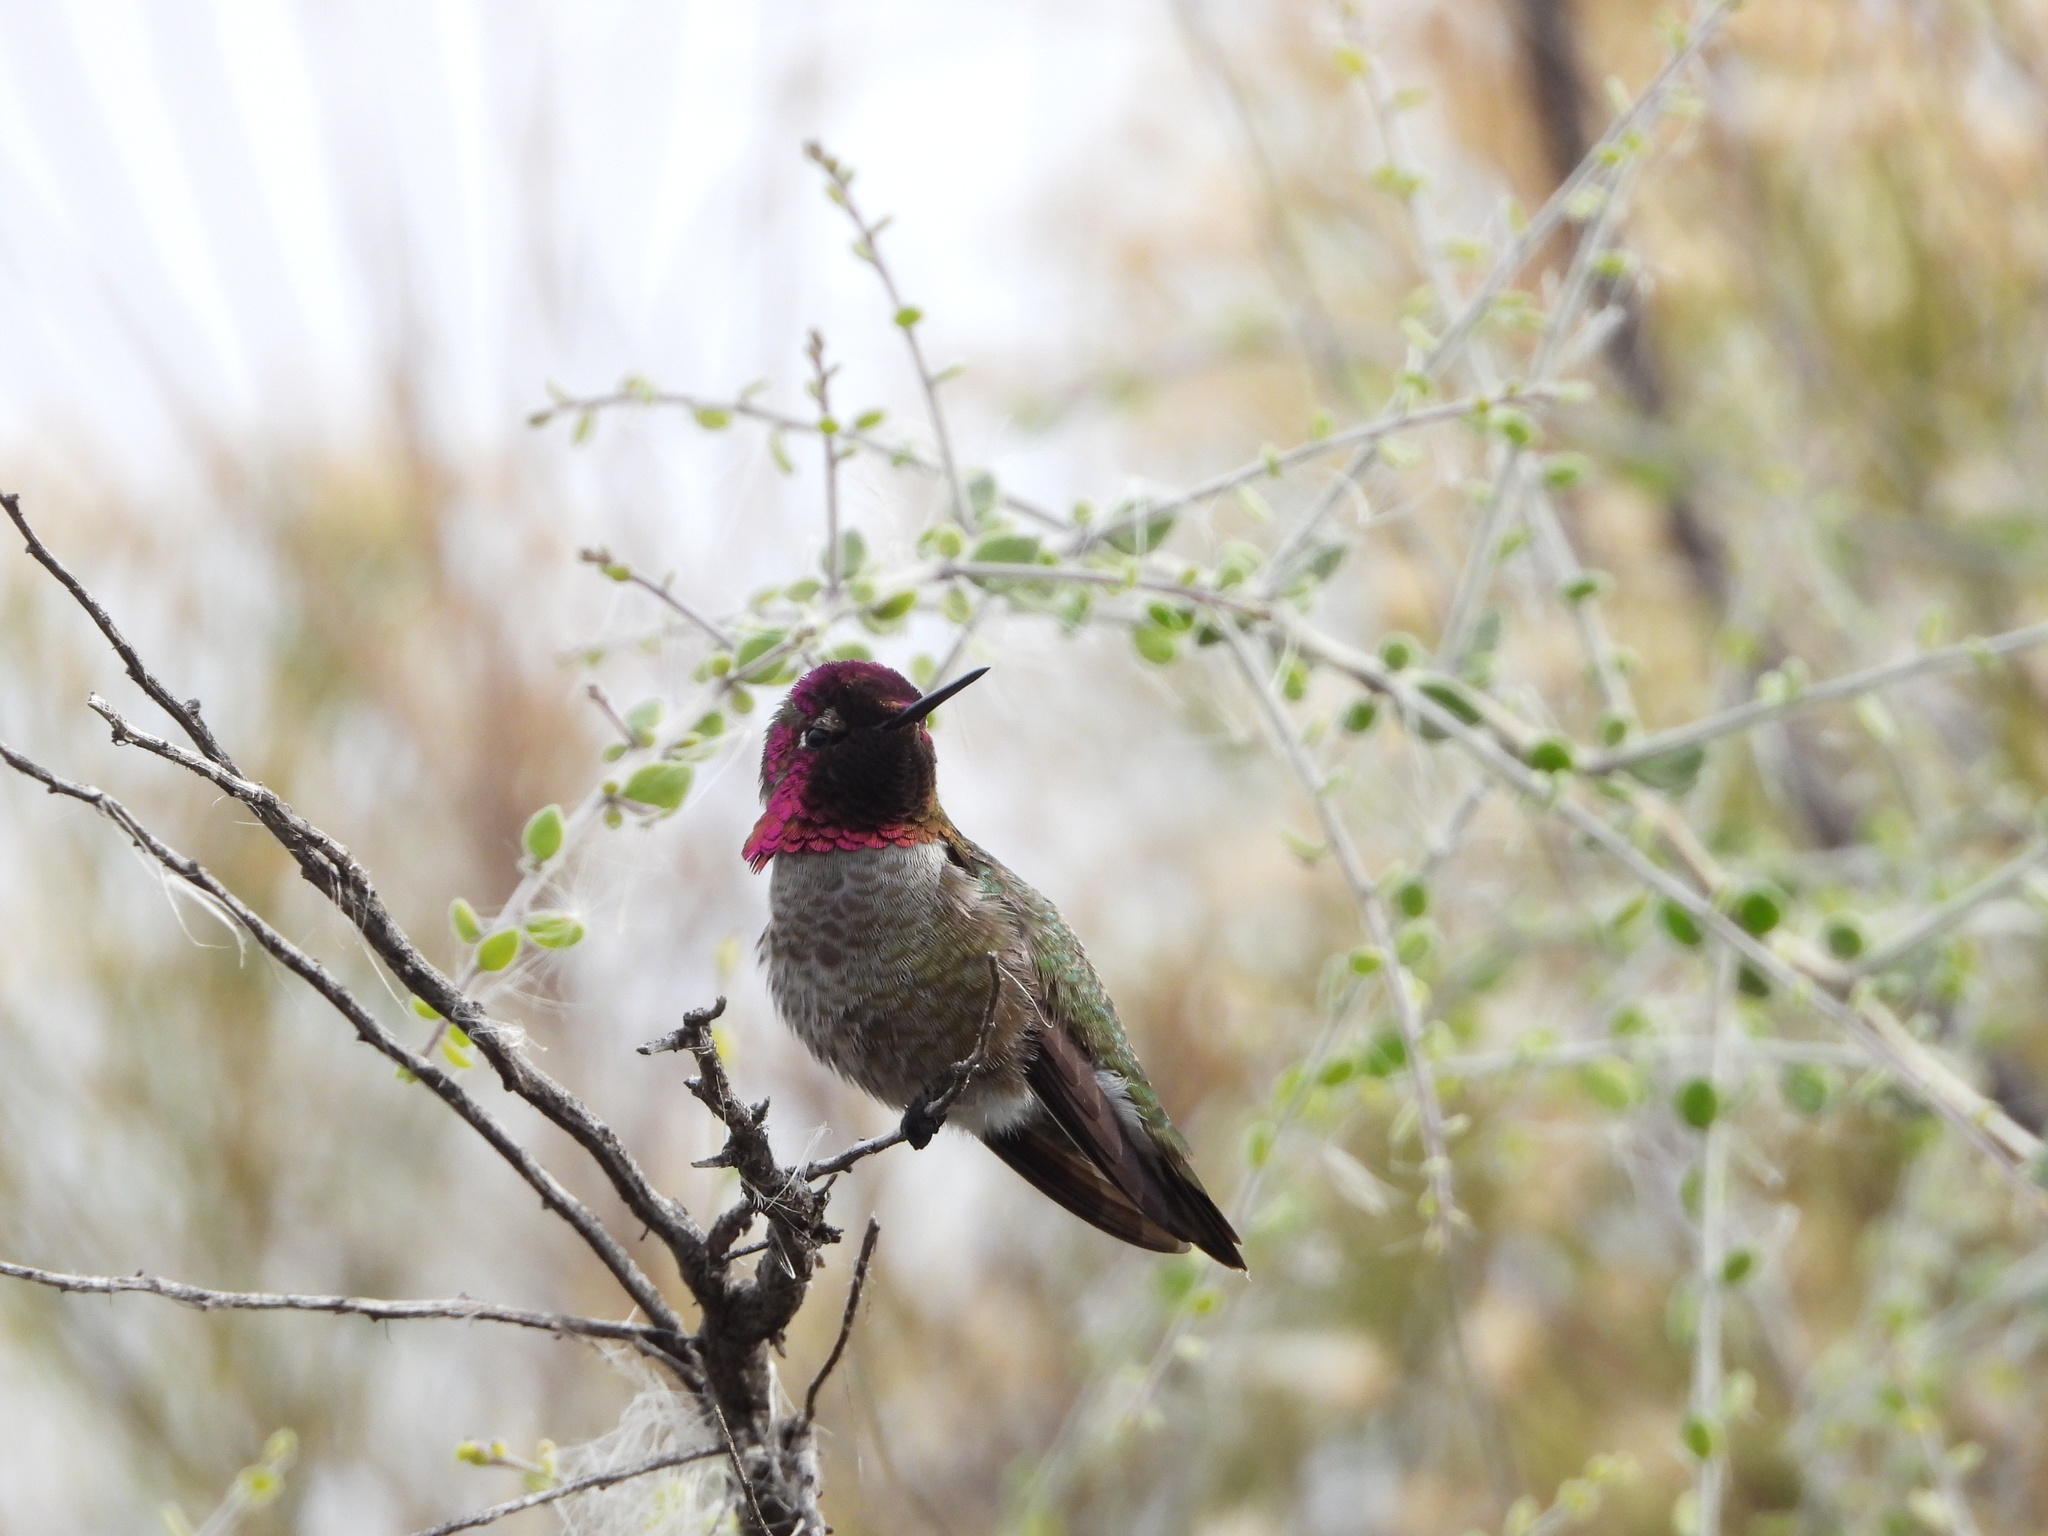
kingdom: Animalia
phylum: Chordata
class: Aves
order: Apodiformes
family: Trochilidae
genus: Calypte
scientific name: Calypte anna
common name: Anna's hummingbird
